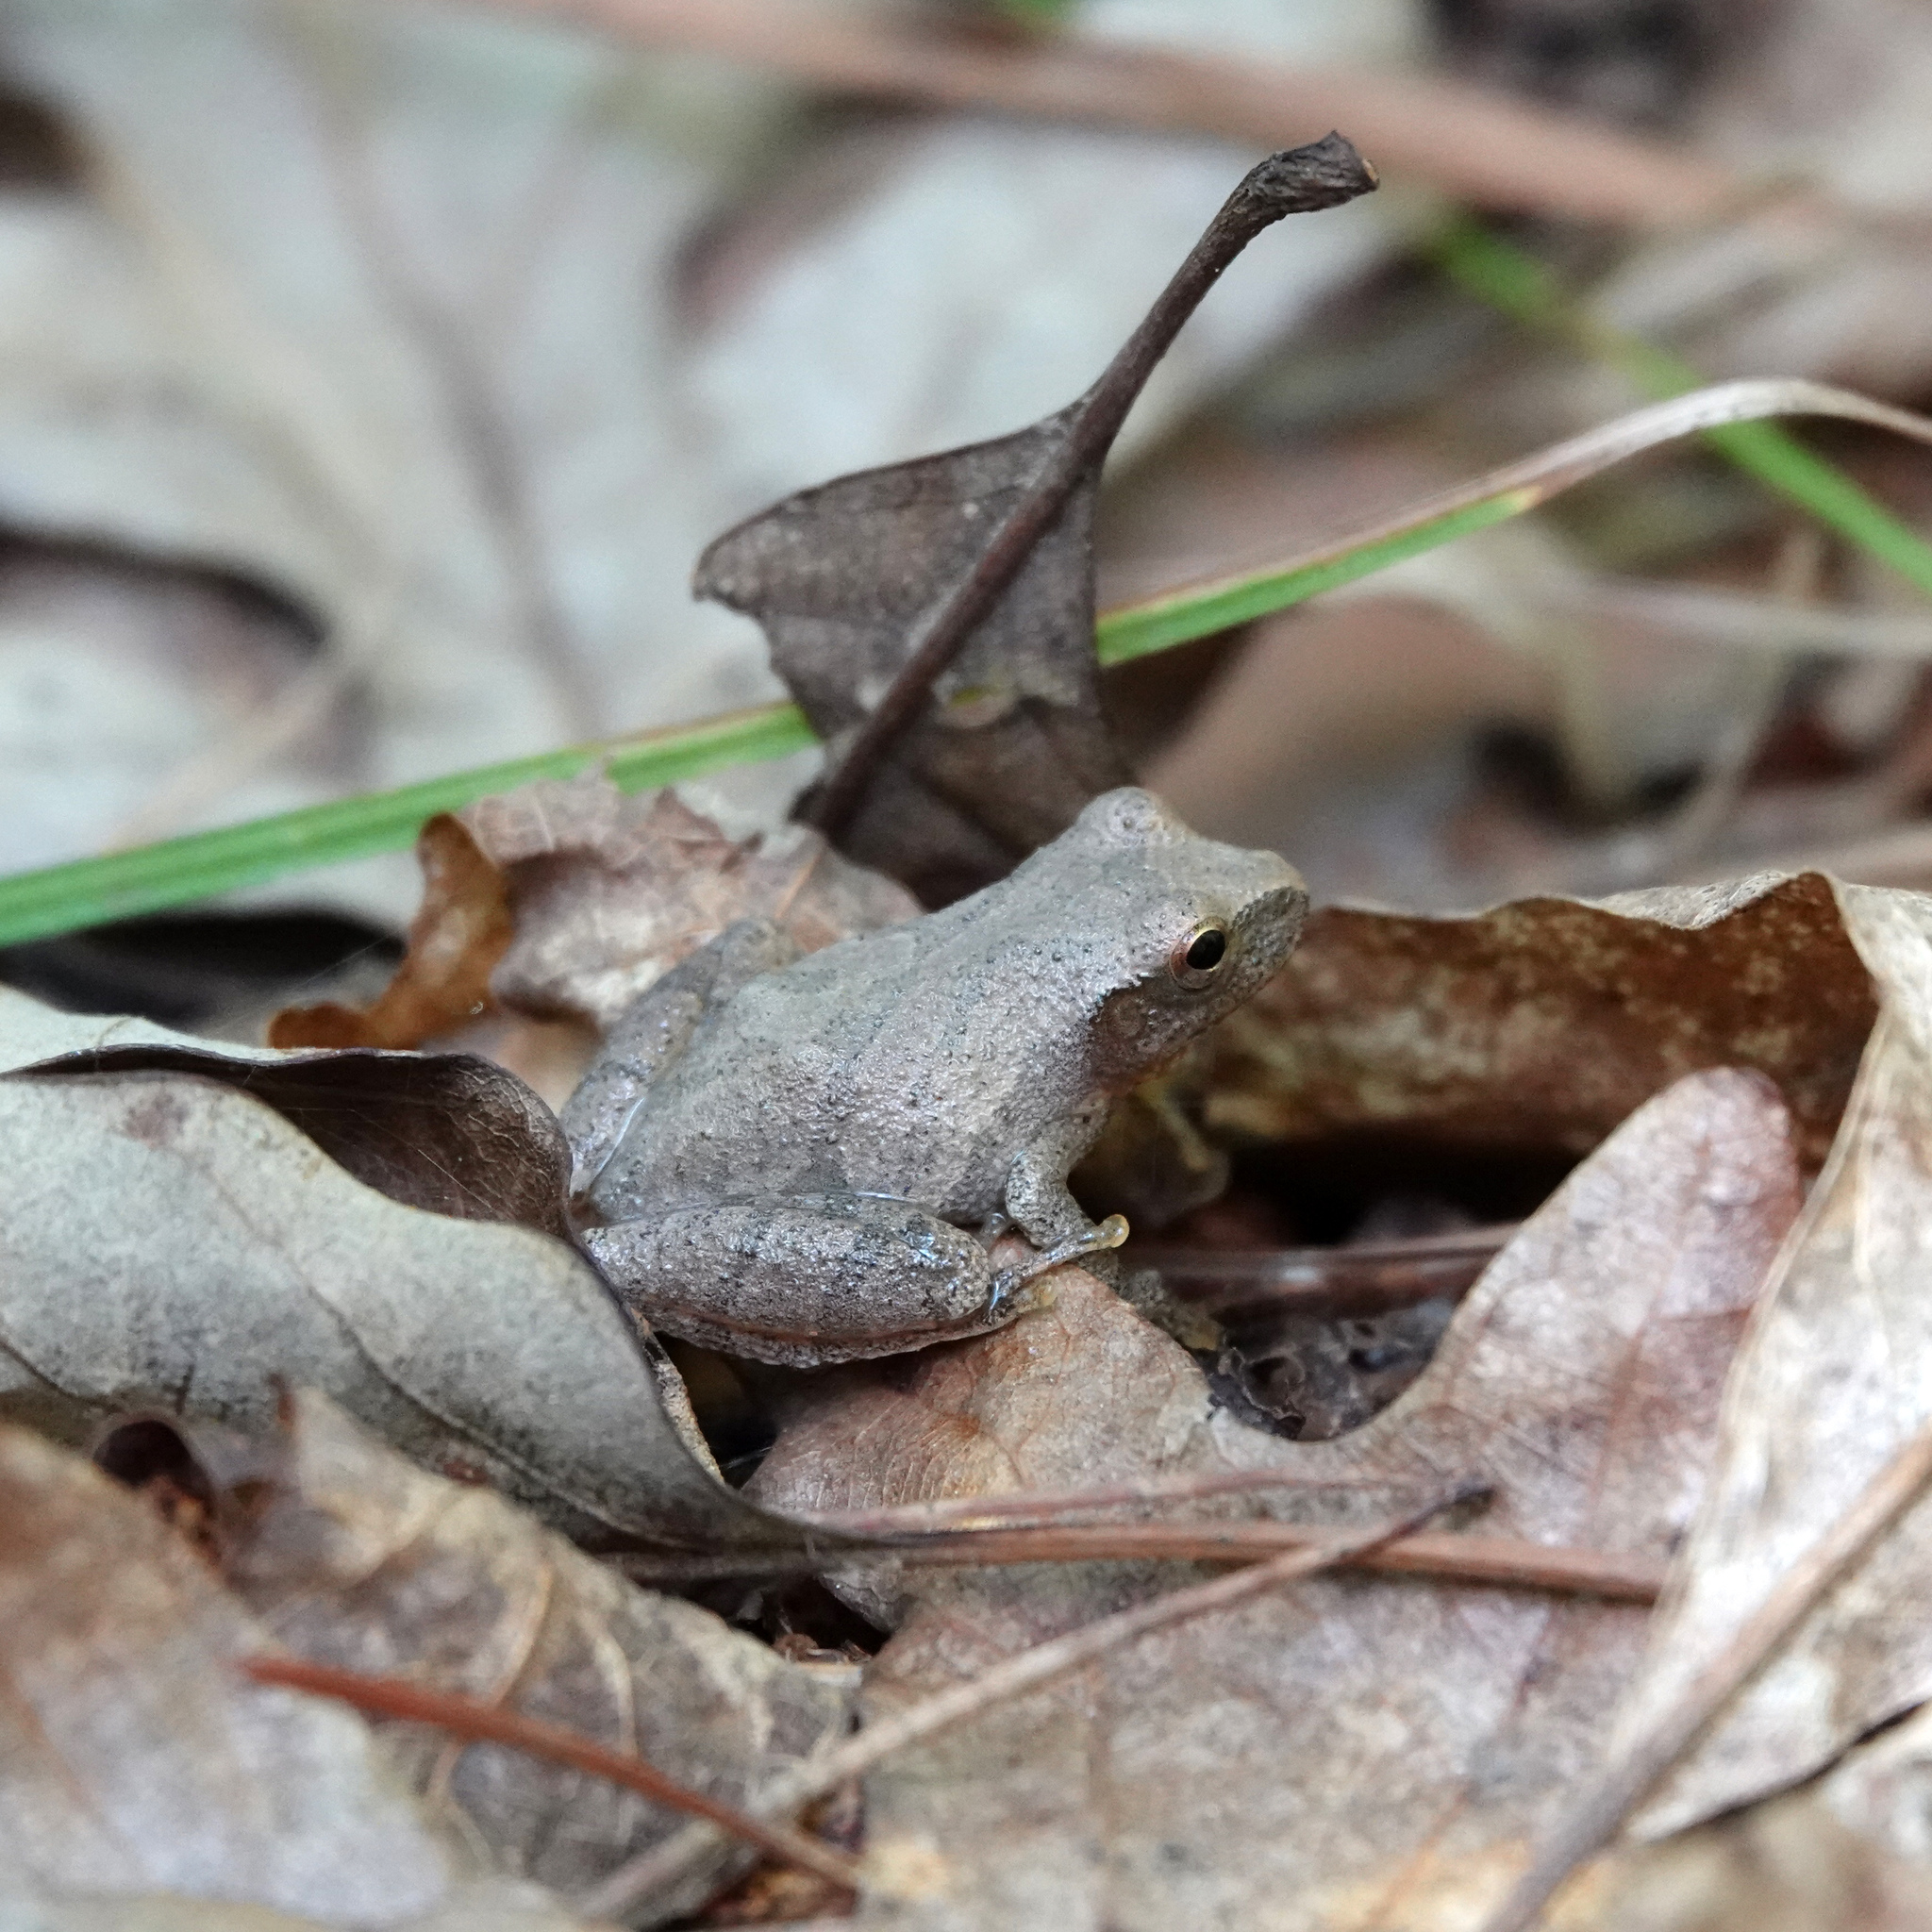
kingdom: Animalia
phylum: Chordata
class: Amphibia
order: Anura
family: Hylidae
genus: Pseudacris
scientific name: Pseudacris crucifer
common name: Spring peeper
